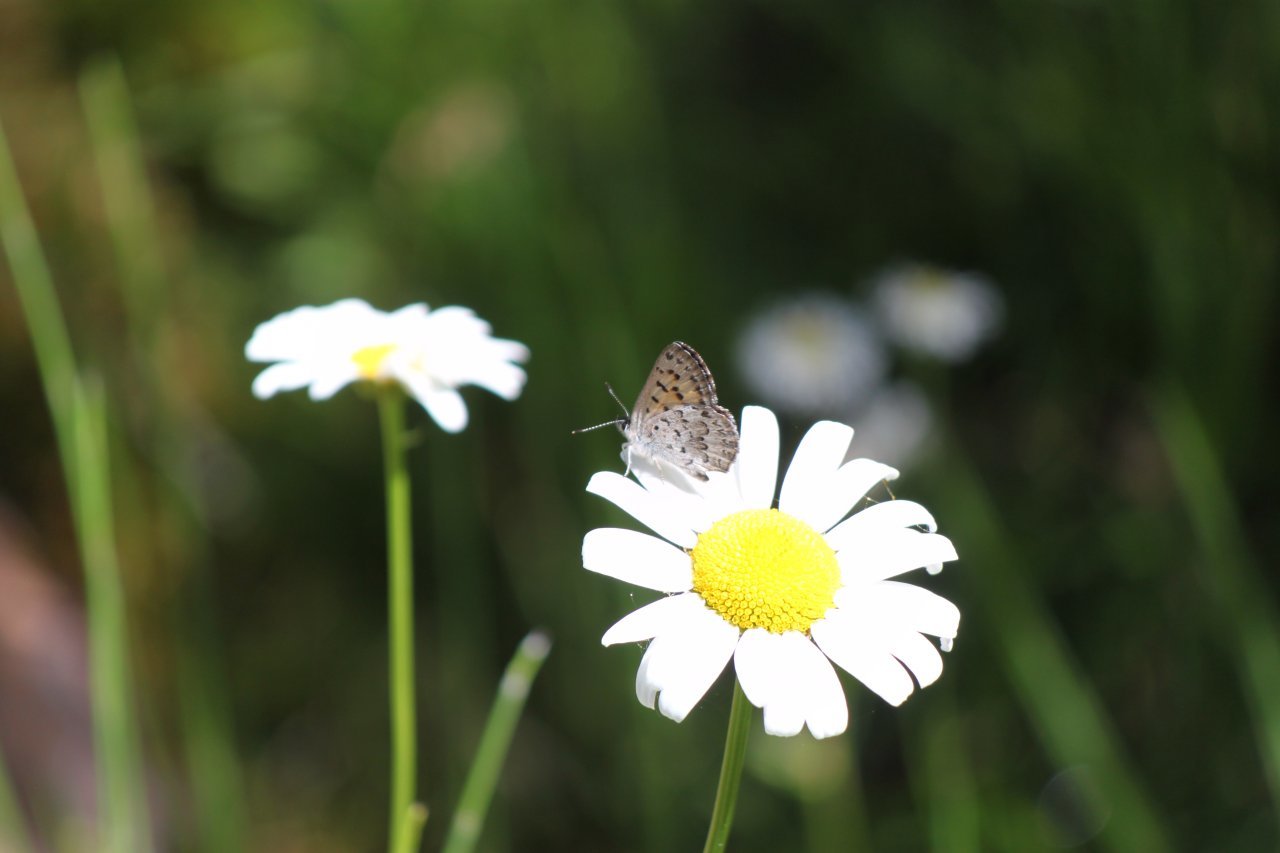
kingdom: Animalia
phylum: Arthropoda
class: Insecta
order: Lepidoptera
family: Lycaenidae
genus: Tharsalea
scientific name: Tharsalea mariposa
